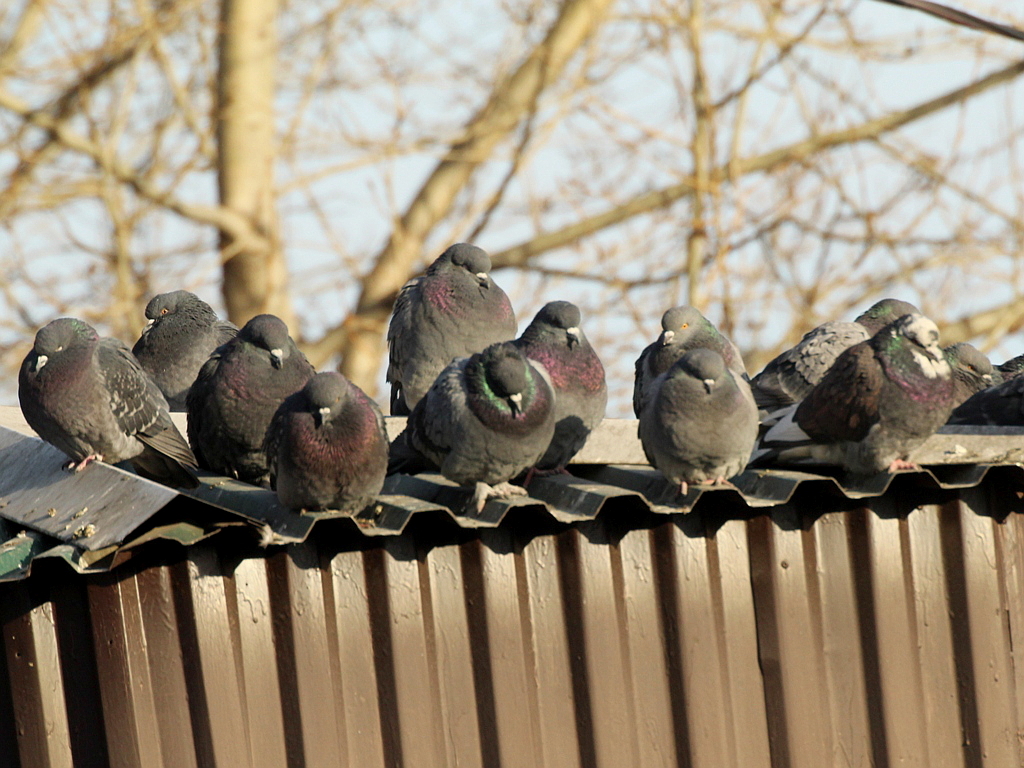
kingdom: Animalia
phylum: Chordata
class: Aves
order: Columbiformes
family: Columbidae
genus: Columba
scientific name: Columba livia
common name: Rock pigeon
